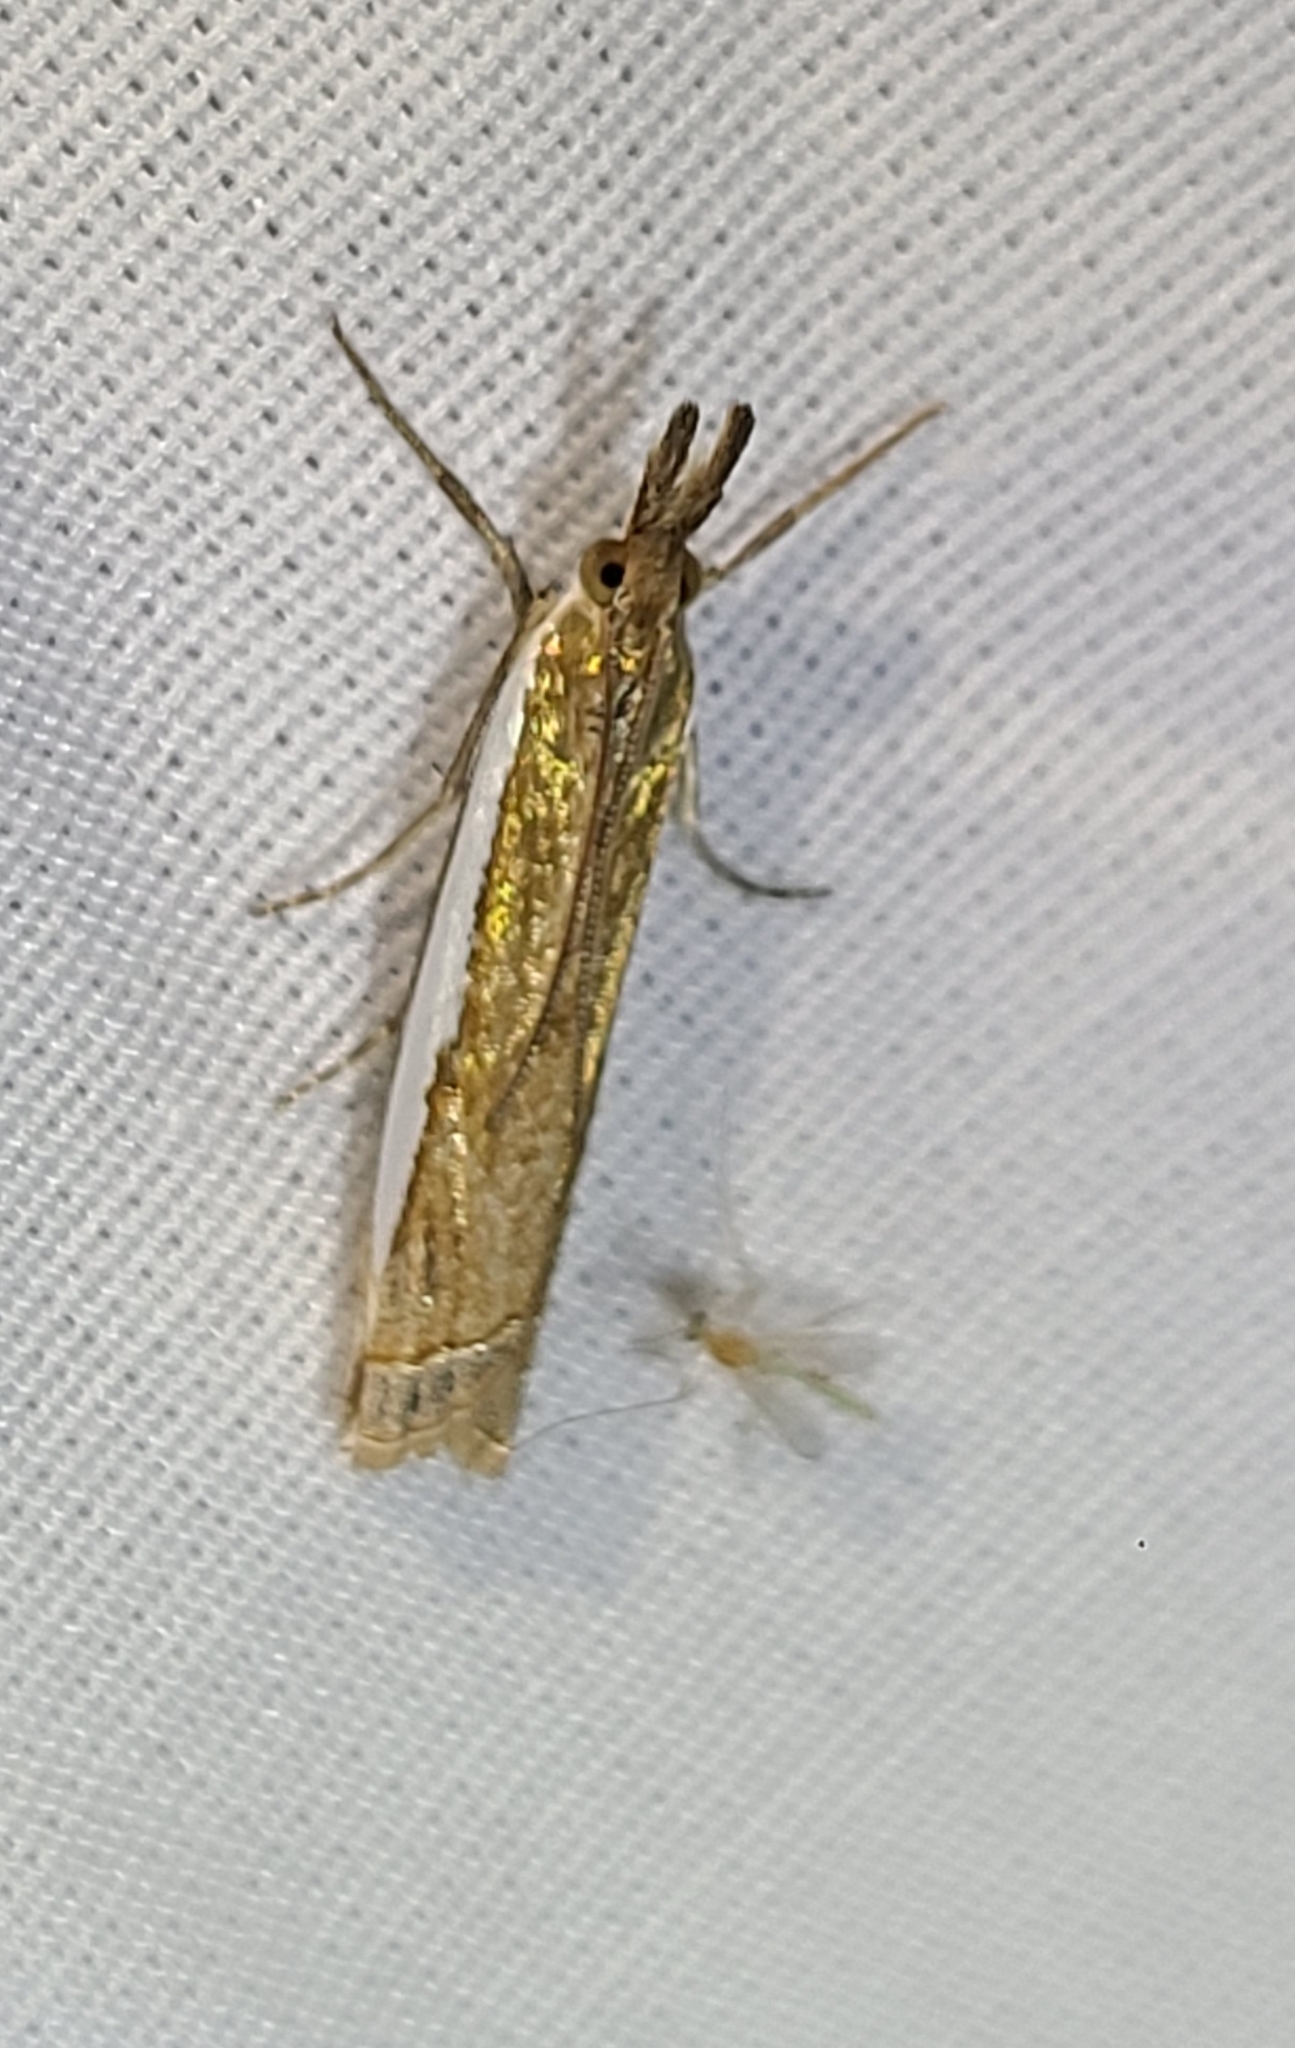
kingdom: Animalia
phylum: Arthropoda
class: Insecta
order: Lepidoptera
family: Crambidae
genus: Crambus
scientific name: Crambus sperryellus
